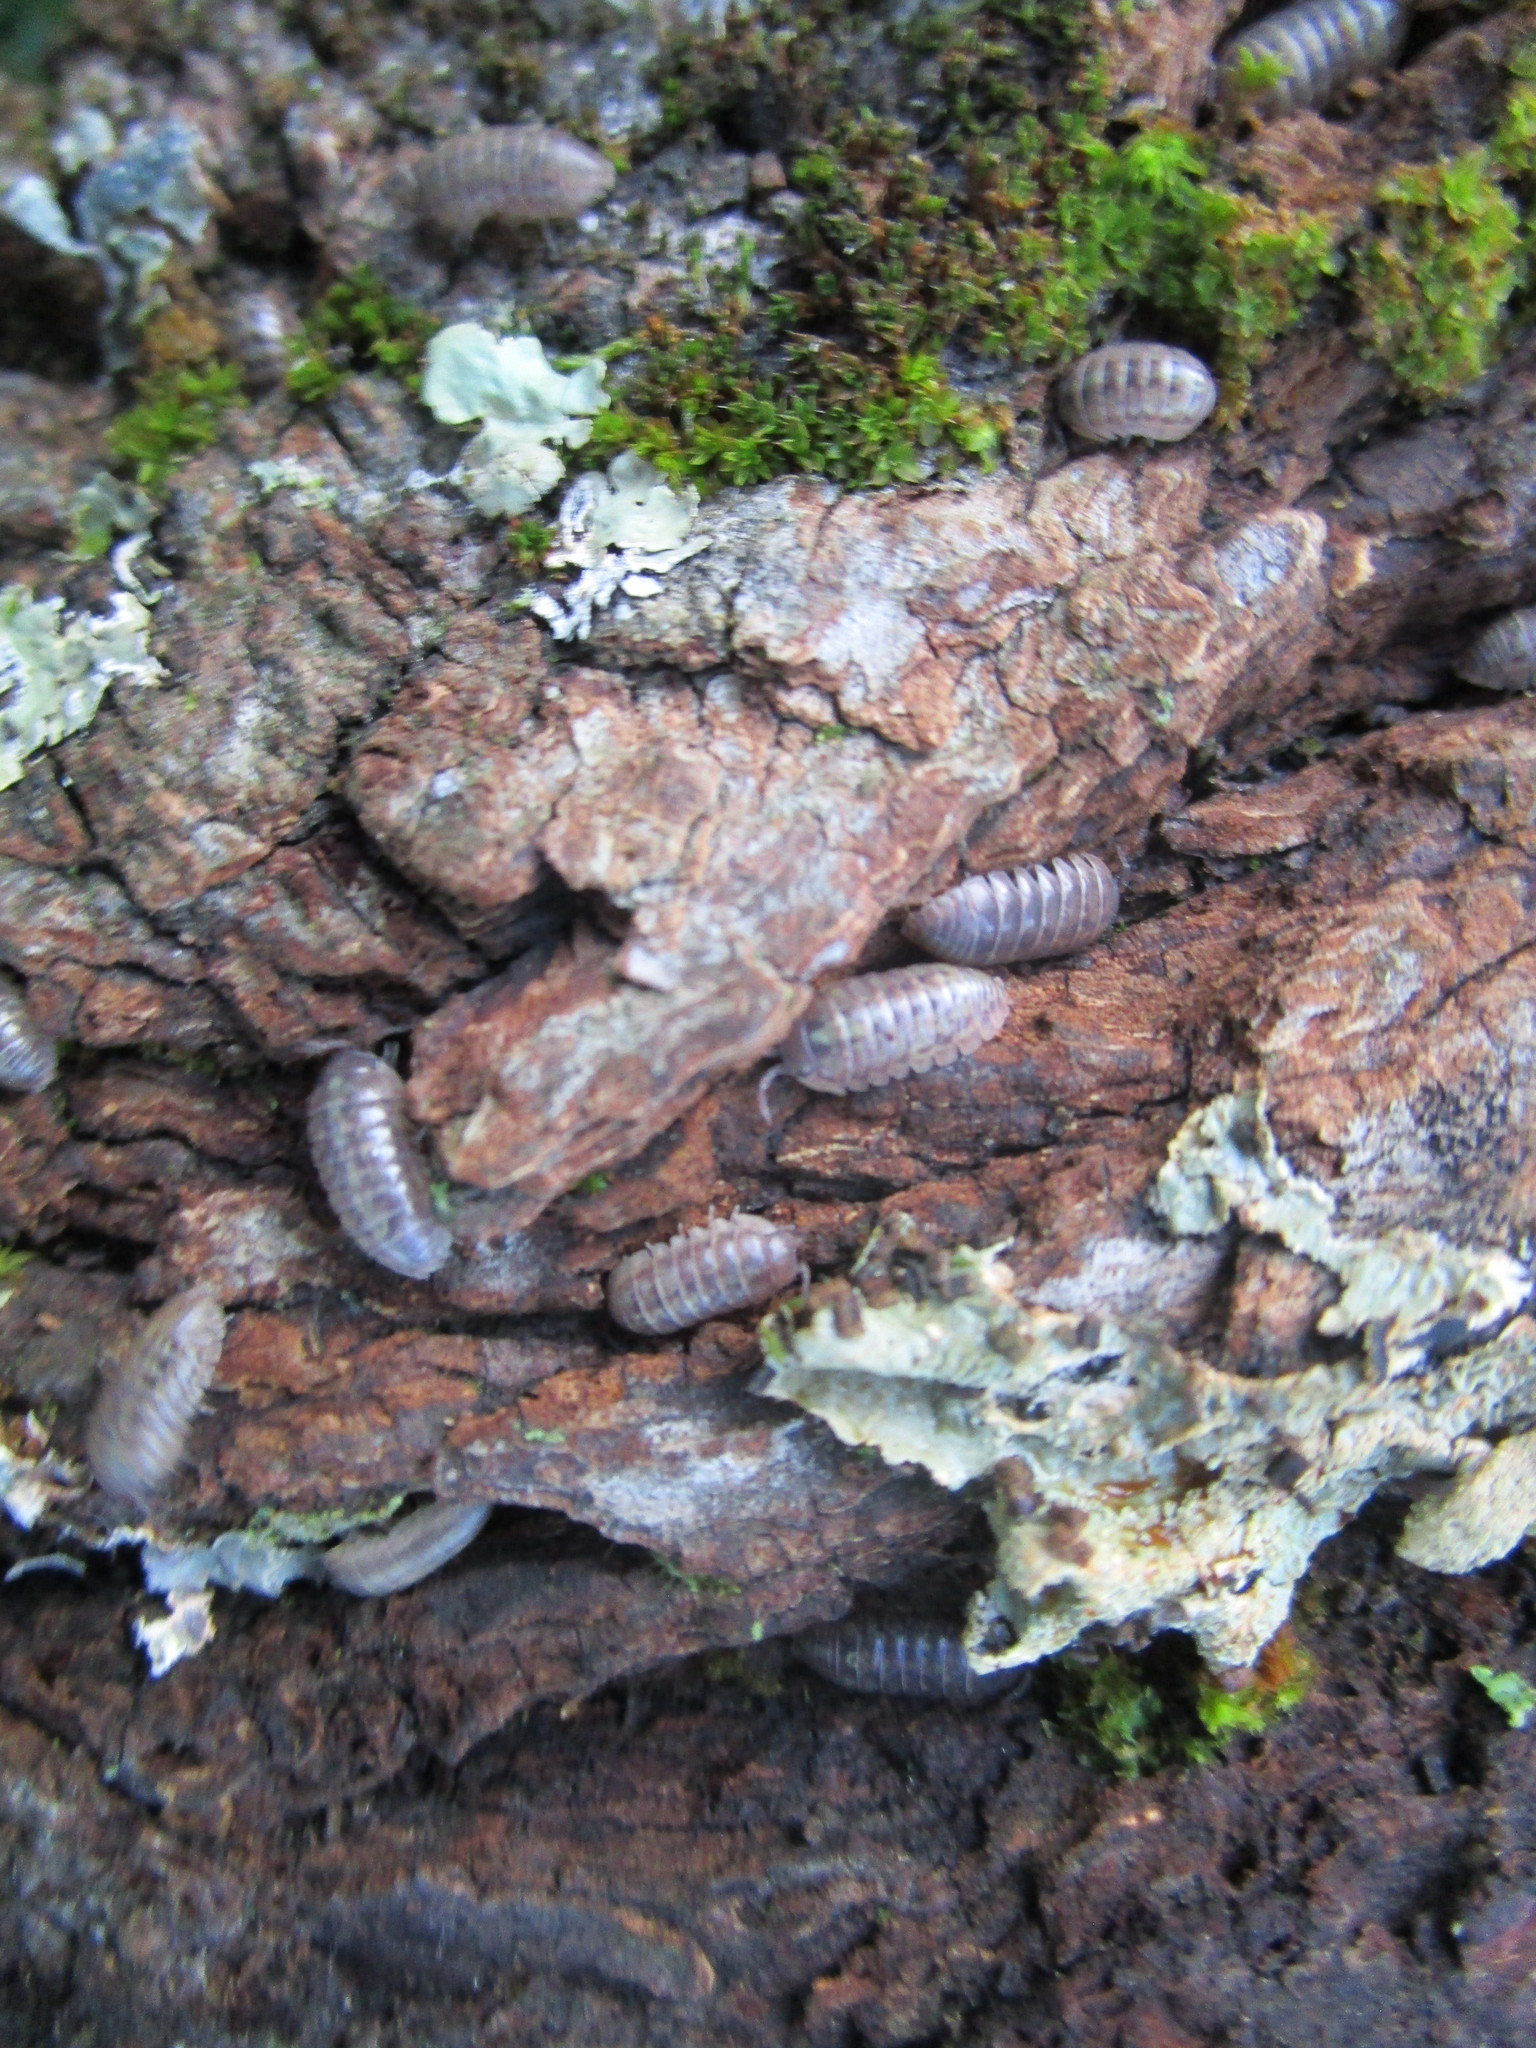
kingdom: Animalia
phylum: Arthropoda
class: Malacostraca
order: Isopoda
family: Armadillidiidae
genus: Armadillidium
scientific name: Armadillidium nasatum
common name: Isopod
